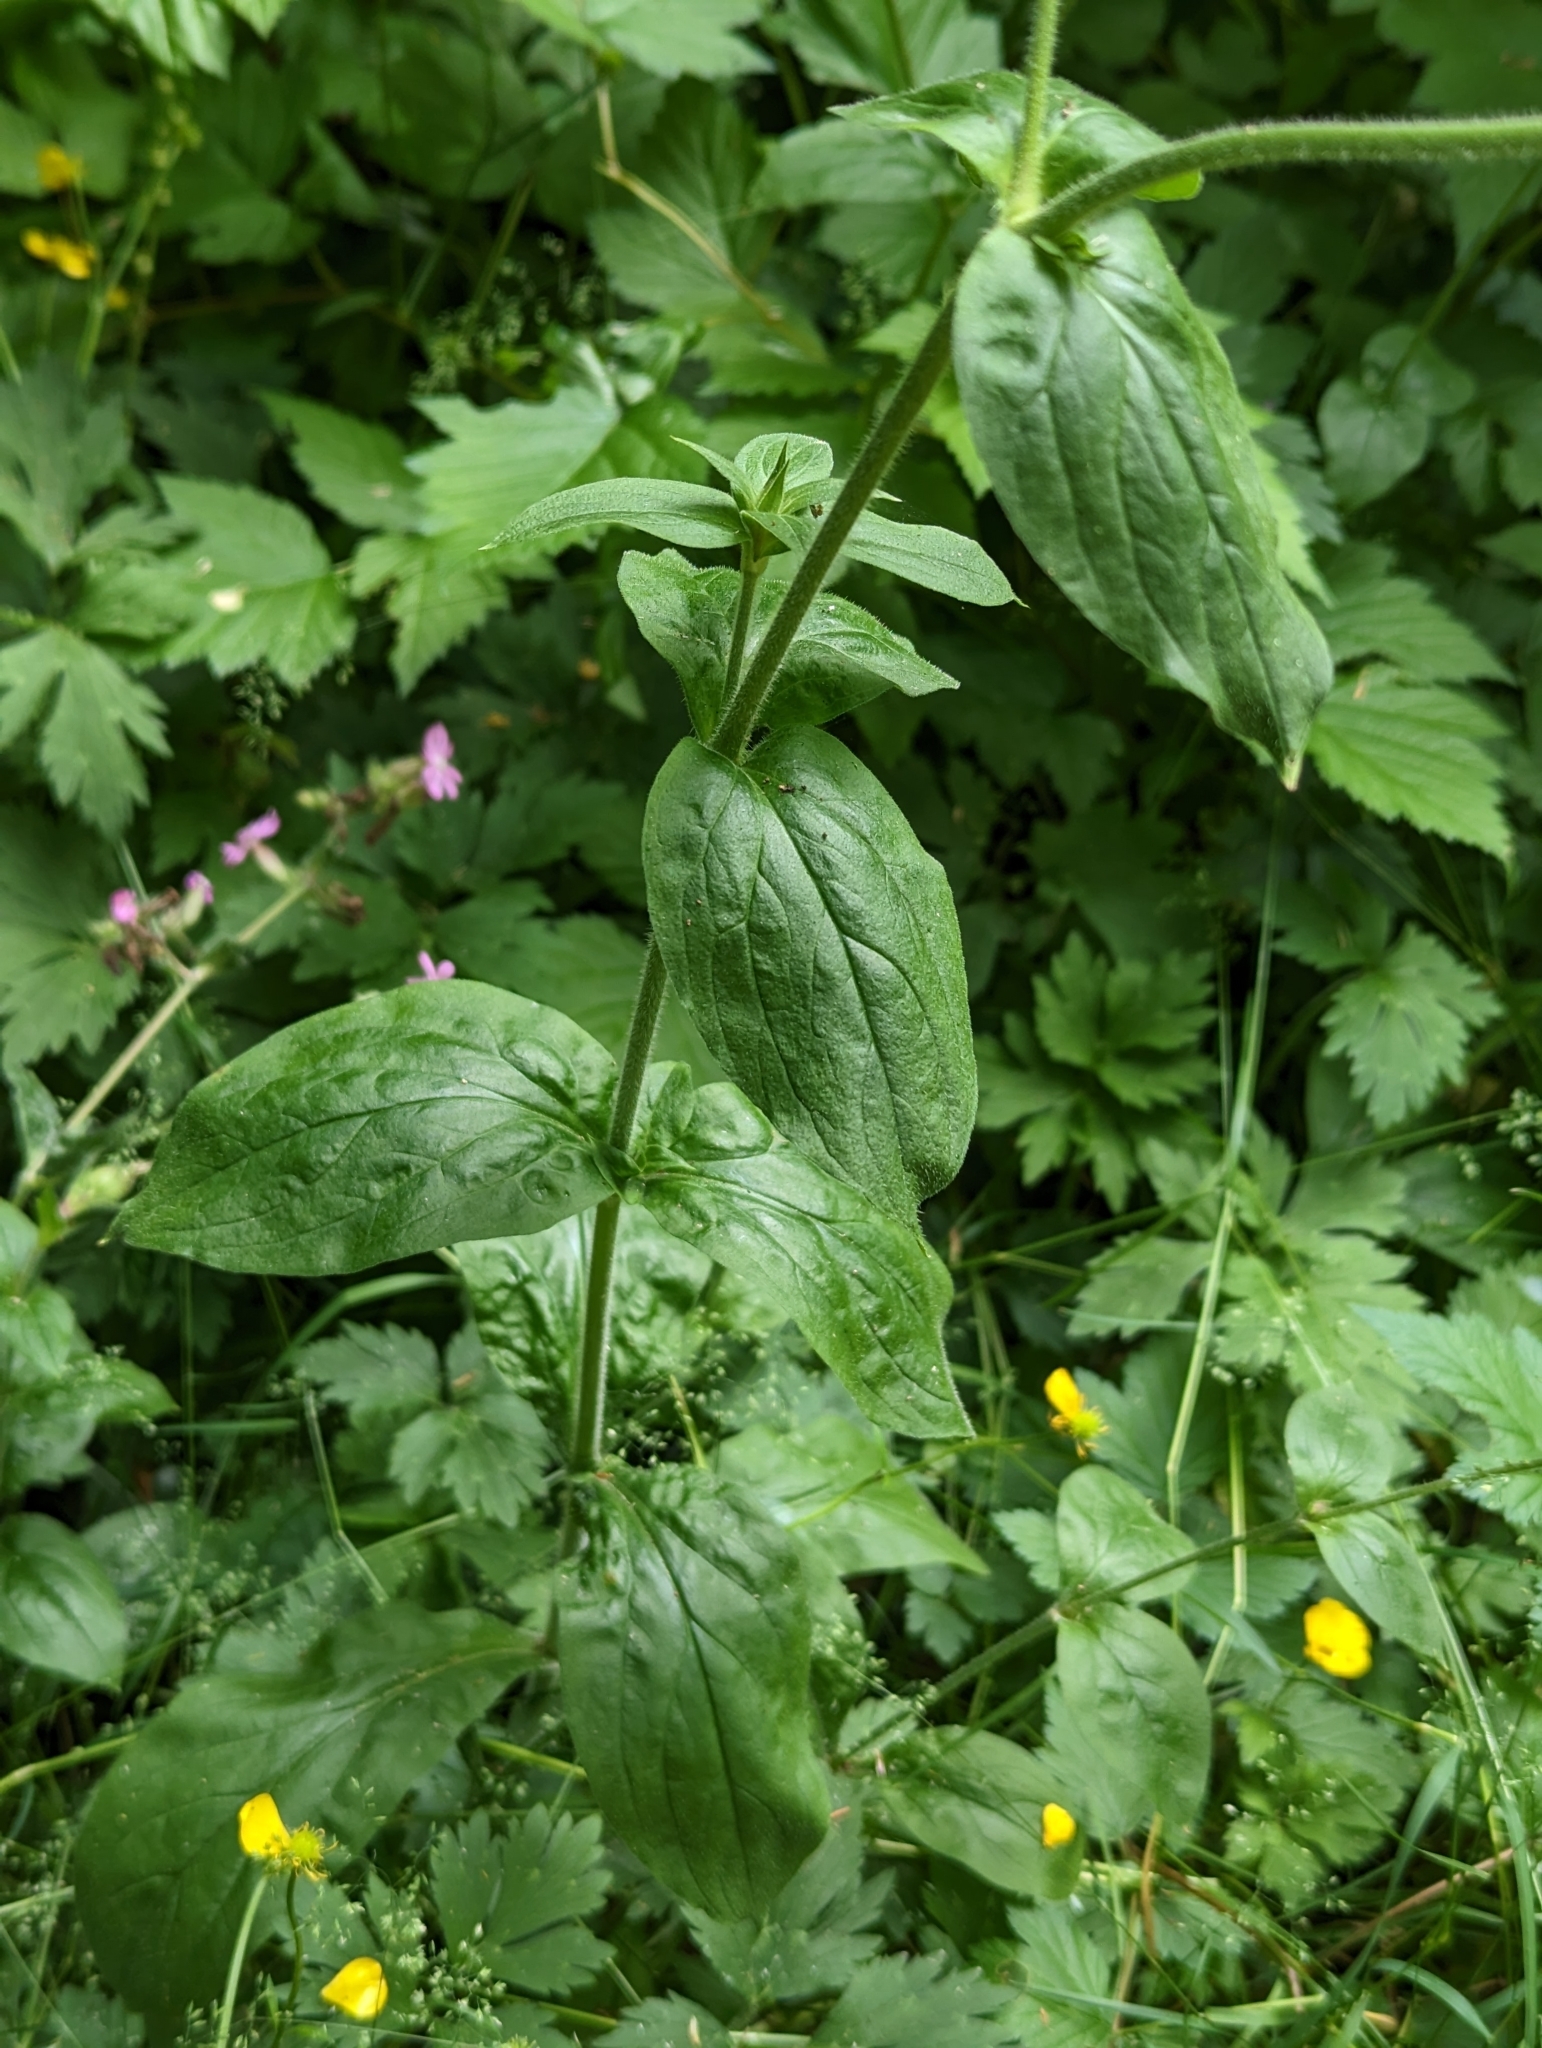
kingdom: Plantae
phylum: Tracheophyta
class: Magnoliopsida
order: Caryophyllales
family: Caryophyllaceae
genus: Silene
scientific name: Silene dioica
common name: Red campion
